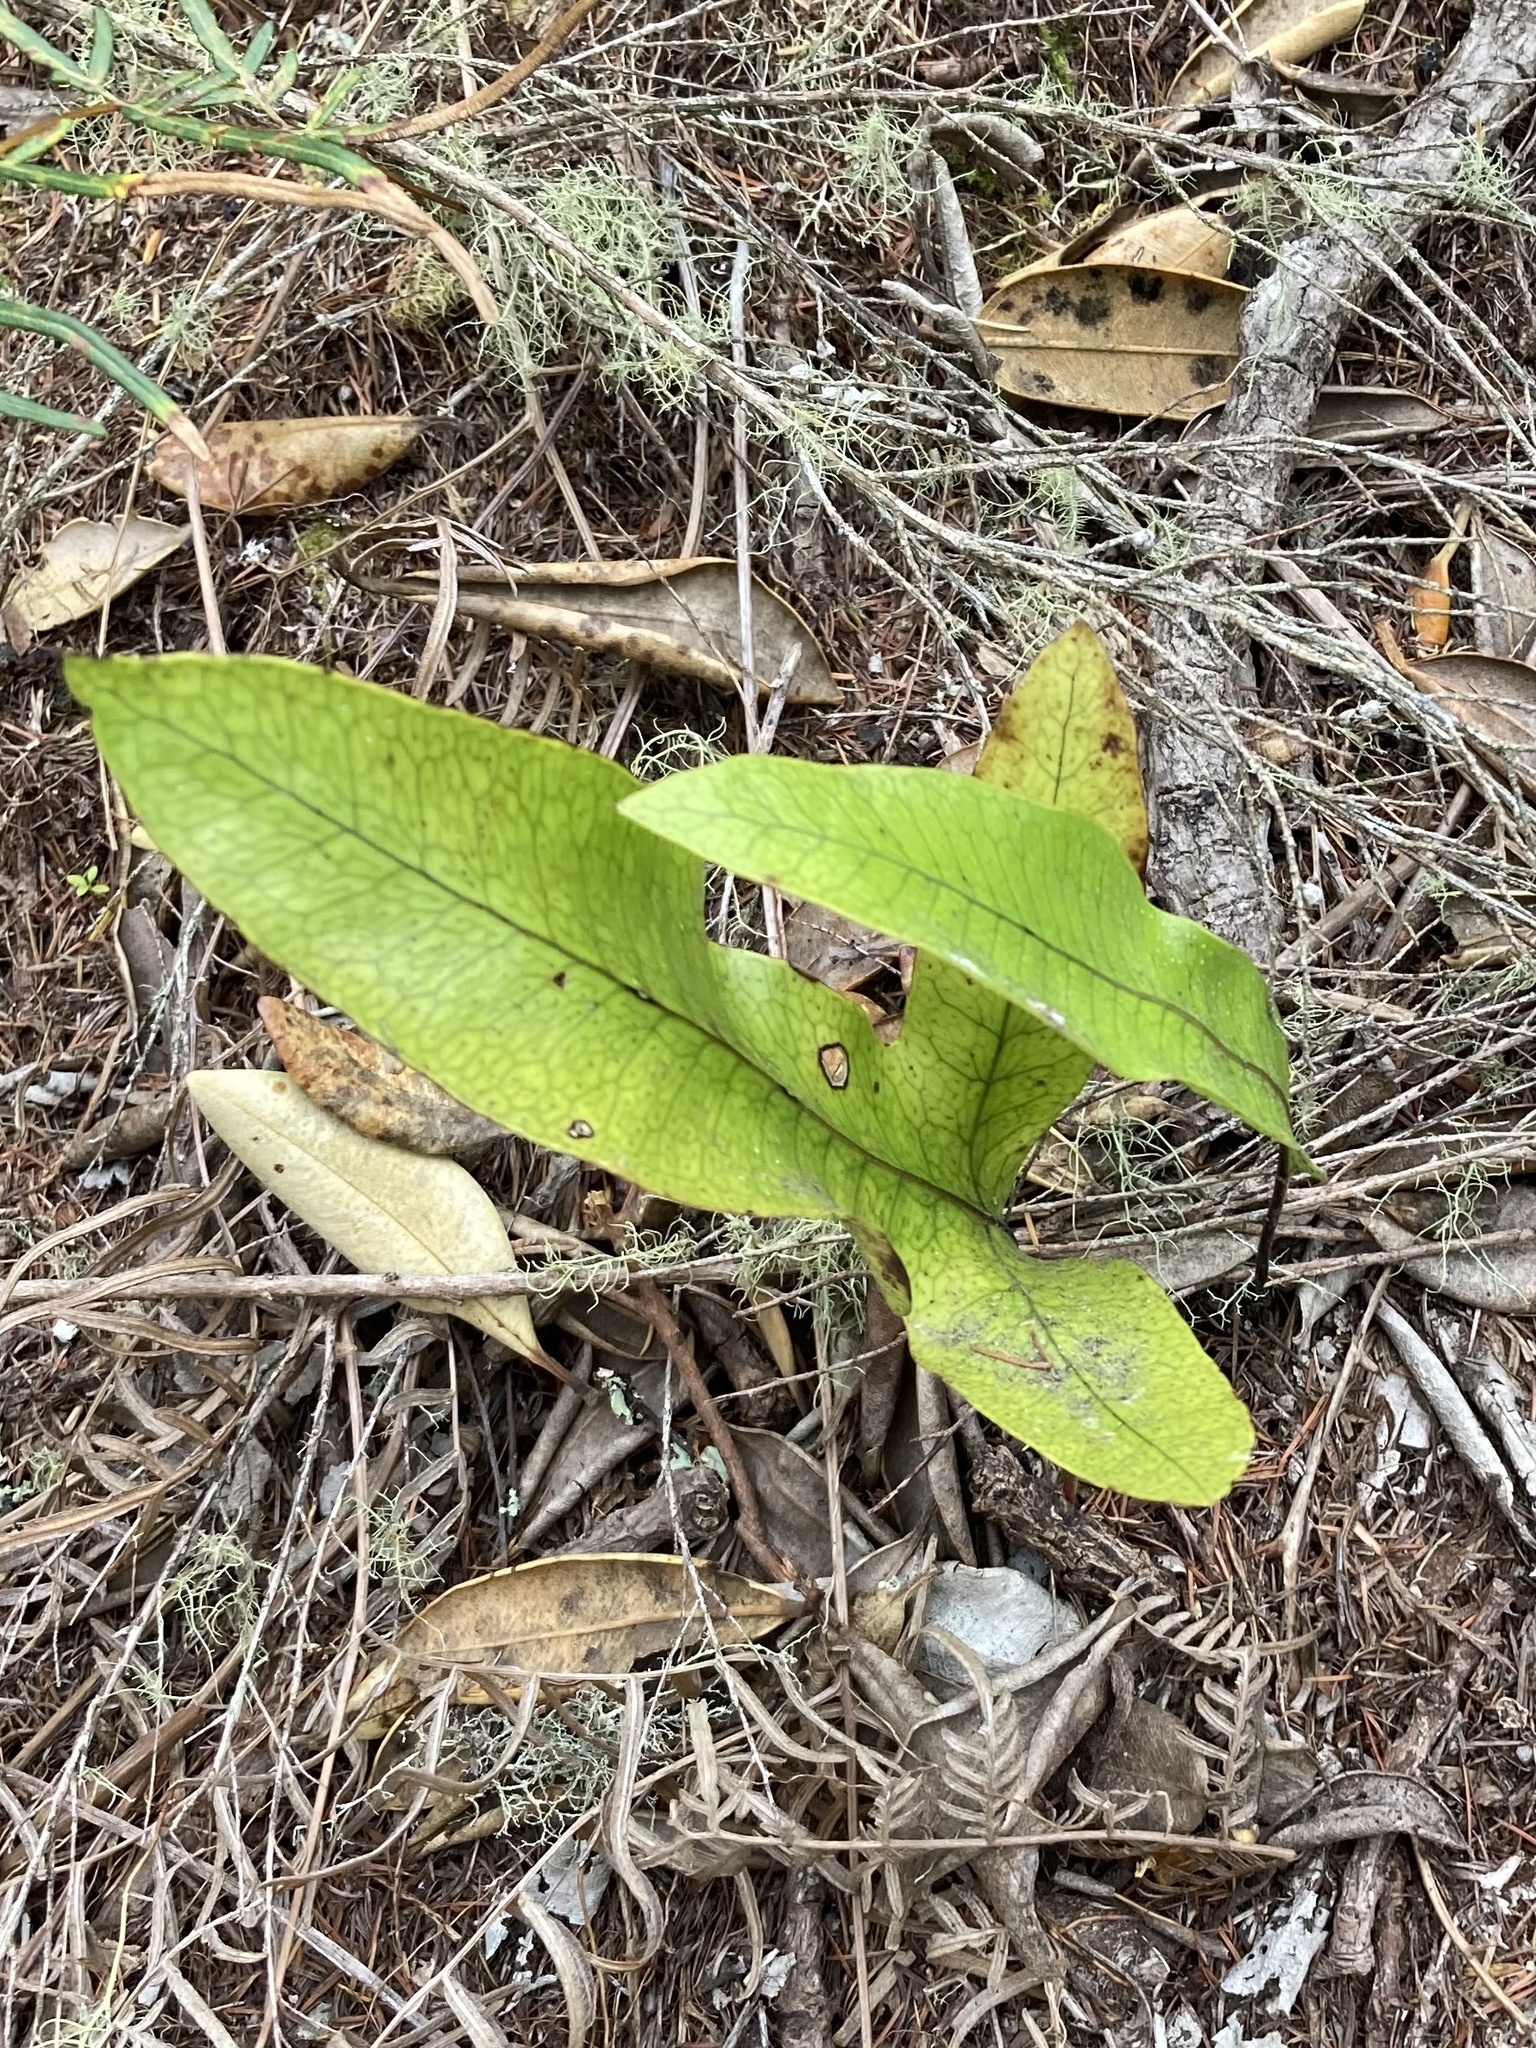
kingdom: Plantae
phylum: Tracheophyta
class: Polypodiopsida
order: Polypodiales
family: Polypodiaceae
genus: Lecanopteris
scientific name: Lecanopteris pustulata
